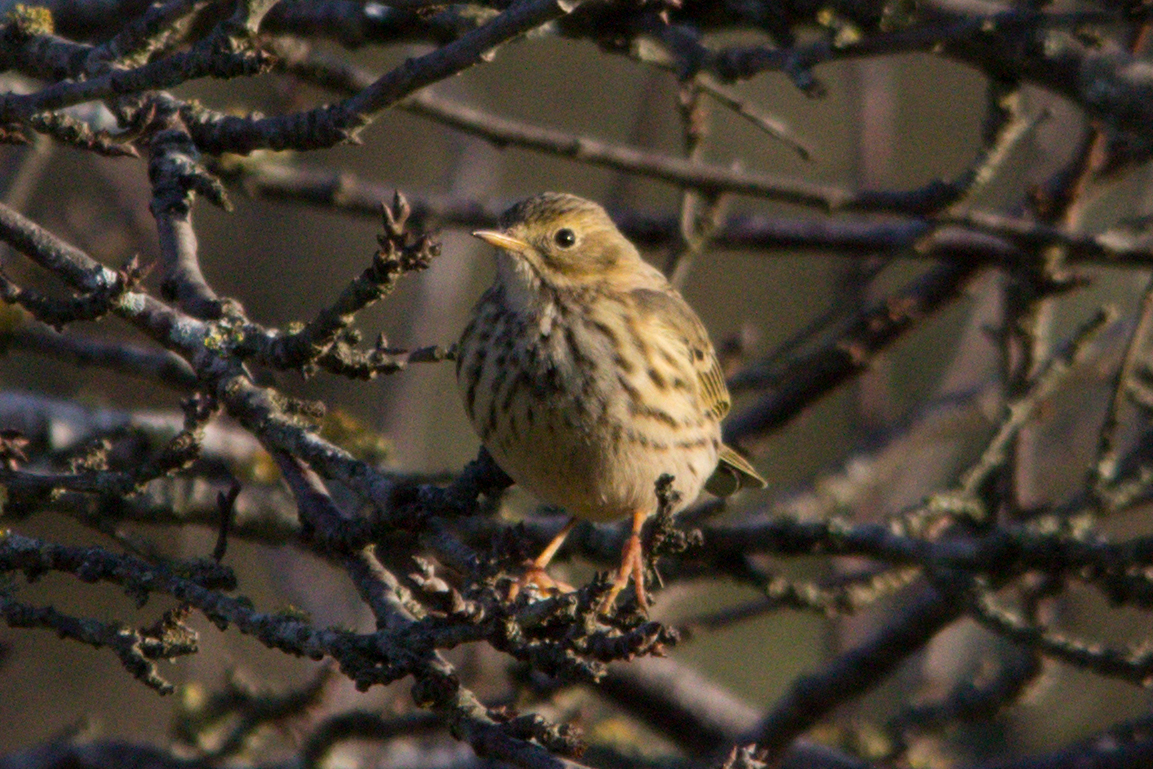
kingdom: Animalia
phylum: Chordata
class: Aves
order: Passeriformes
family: Motacillidae
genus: Anthus
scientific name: Anthus pratensis
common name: Meadow pipit
